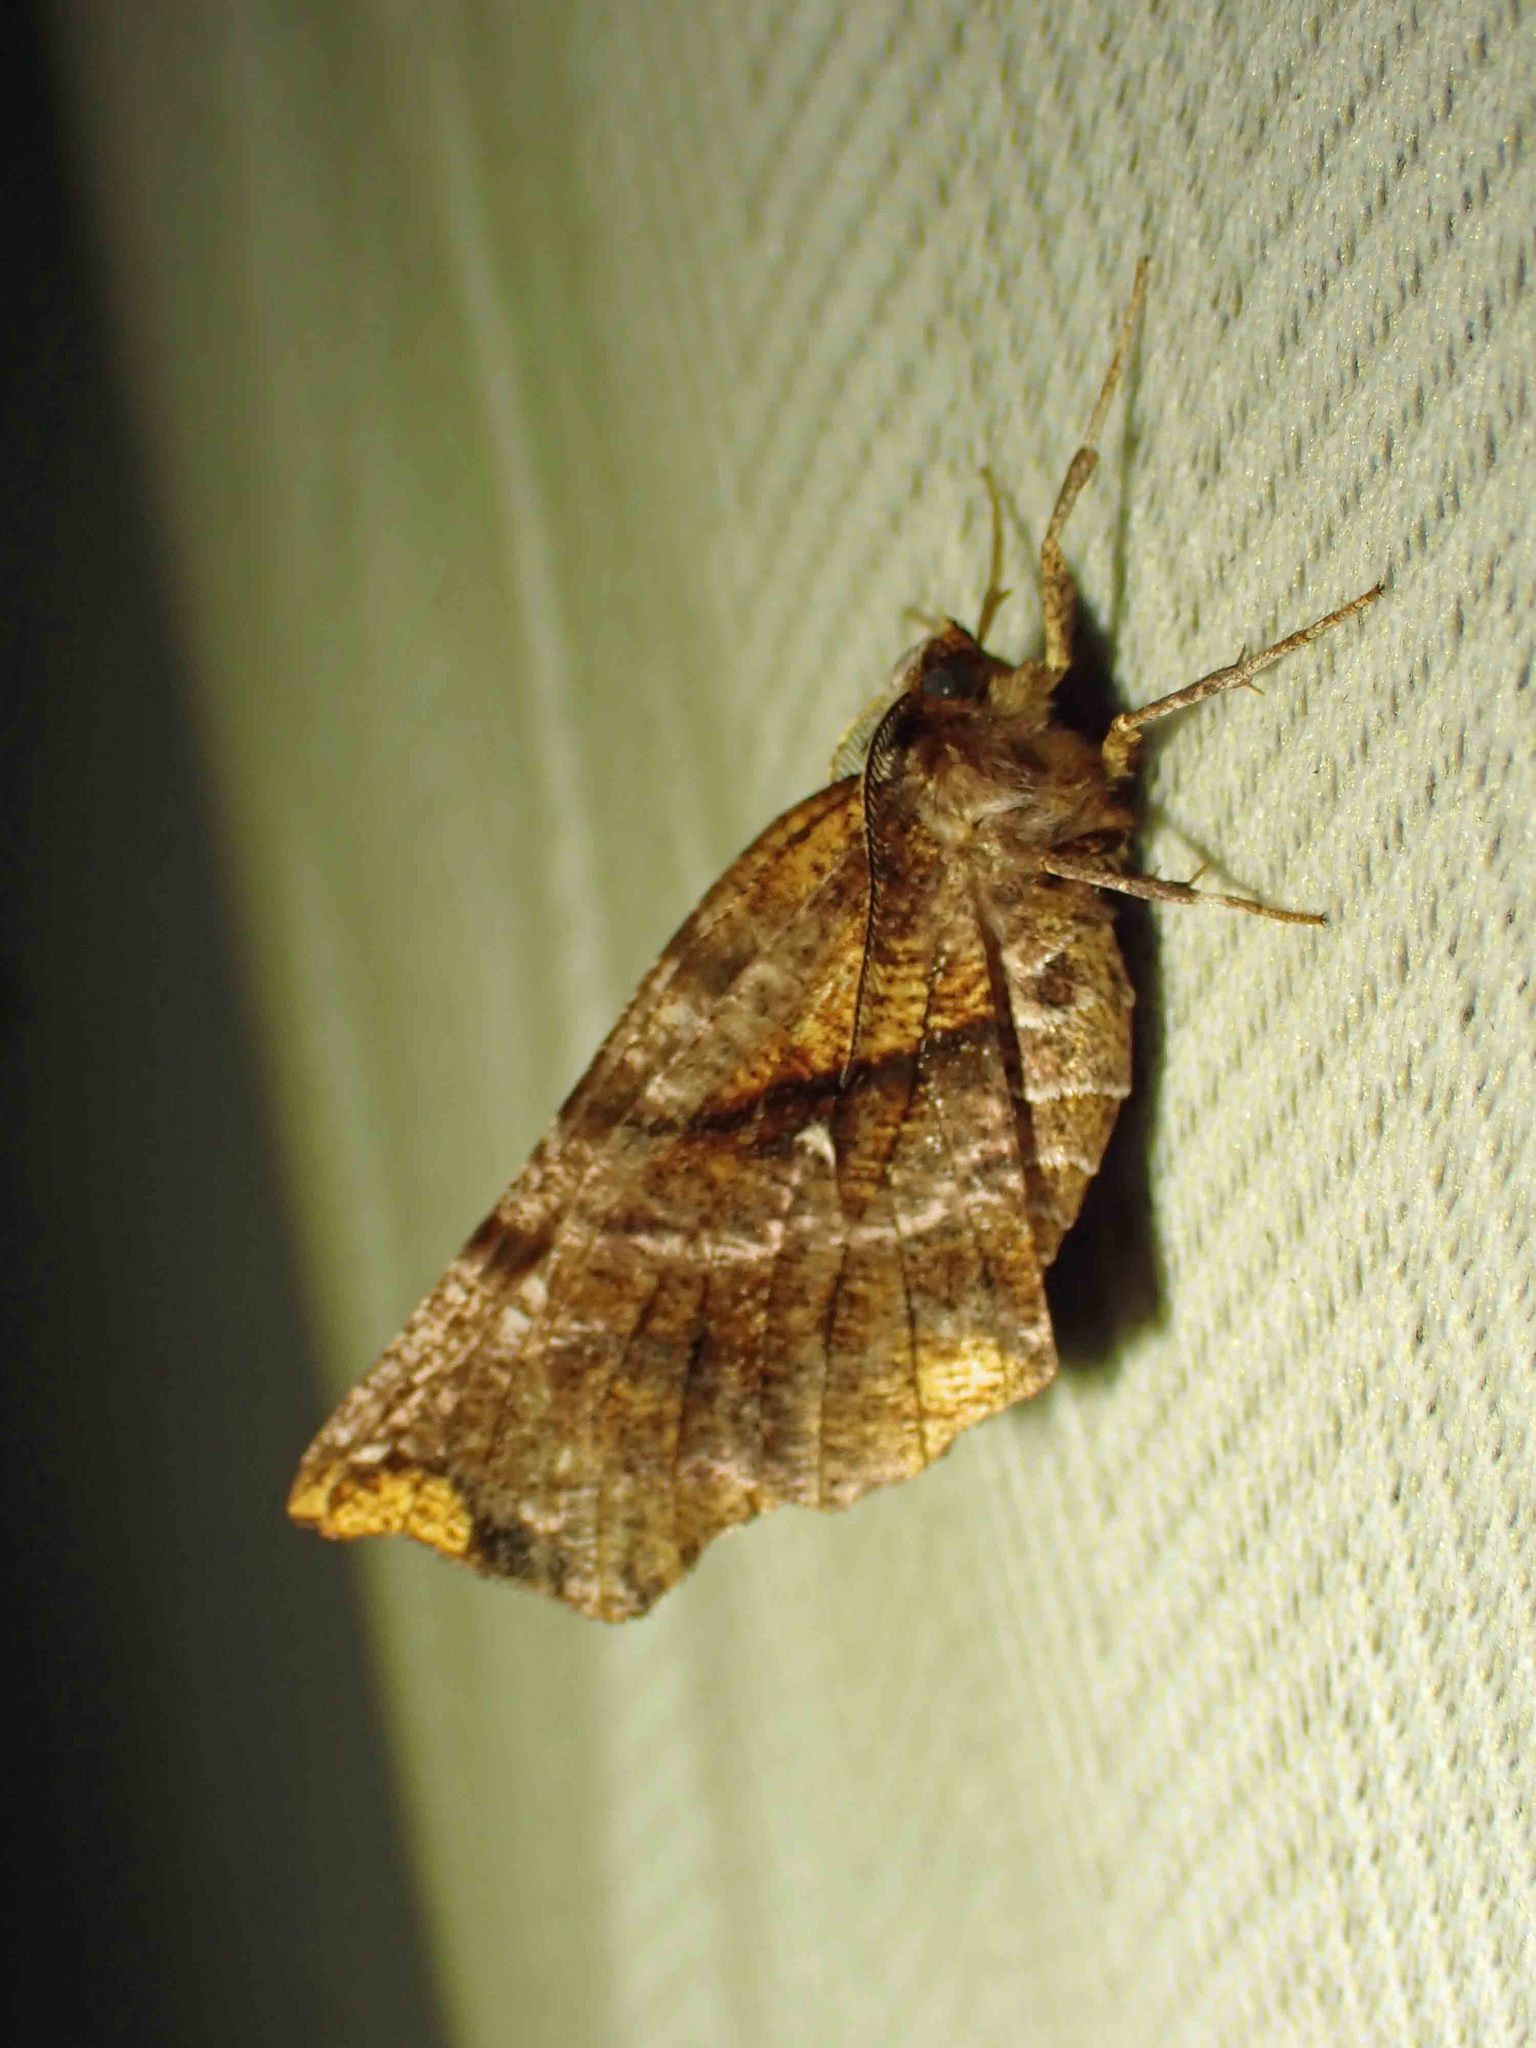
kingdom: Animalia
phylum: Arthropoda
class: Insecta
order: Lepidoptera
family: Geometridae
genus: Selenia
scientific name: Selenia alciphearia
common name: Brown-tipped thorn
